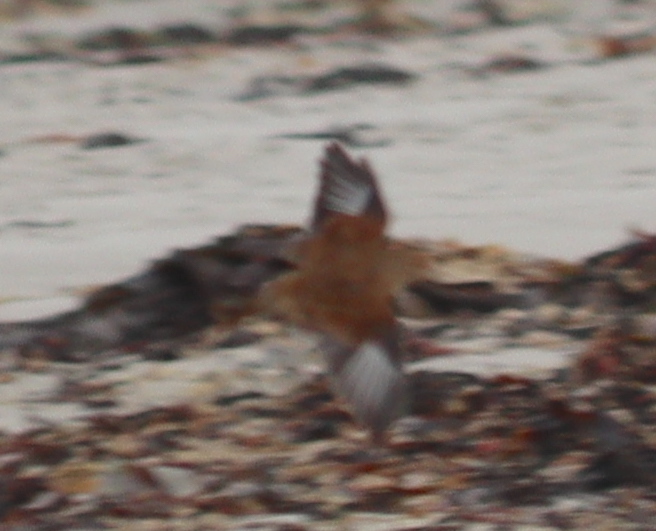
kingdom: Animalia
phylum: Chordata
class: Aves
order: Passeriformes
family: Fringillidae
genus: Linaria
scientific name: Linaria cannabina
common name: Common linnet
